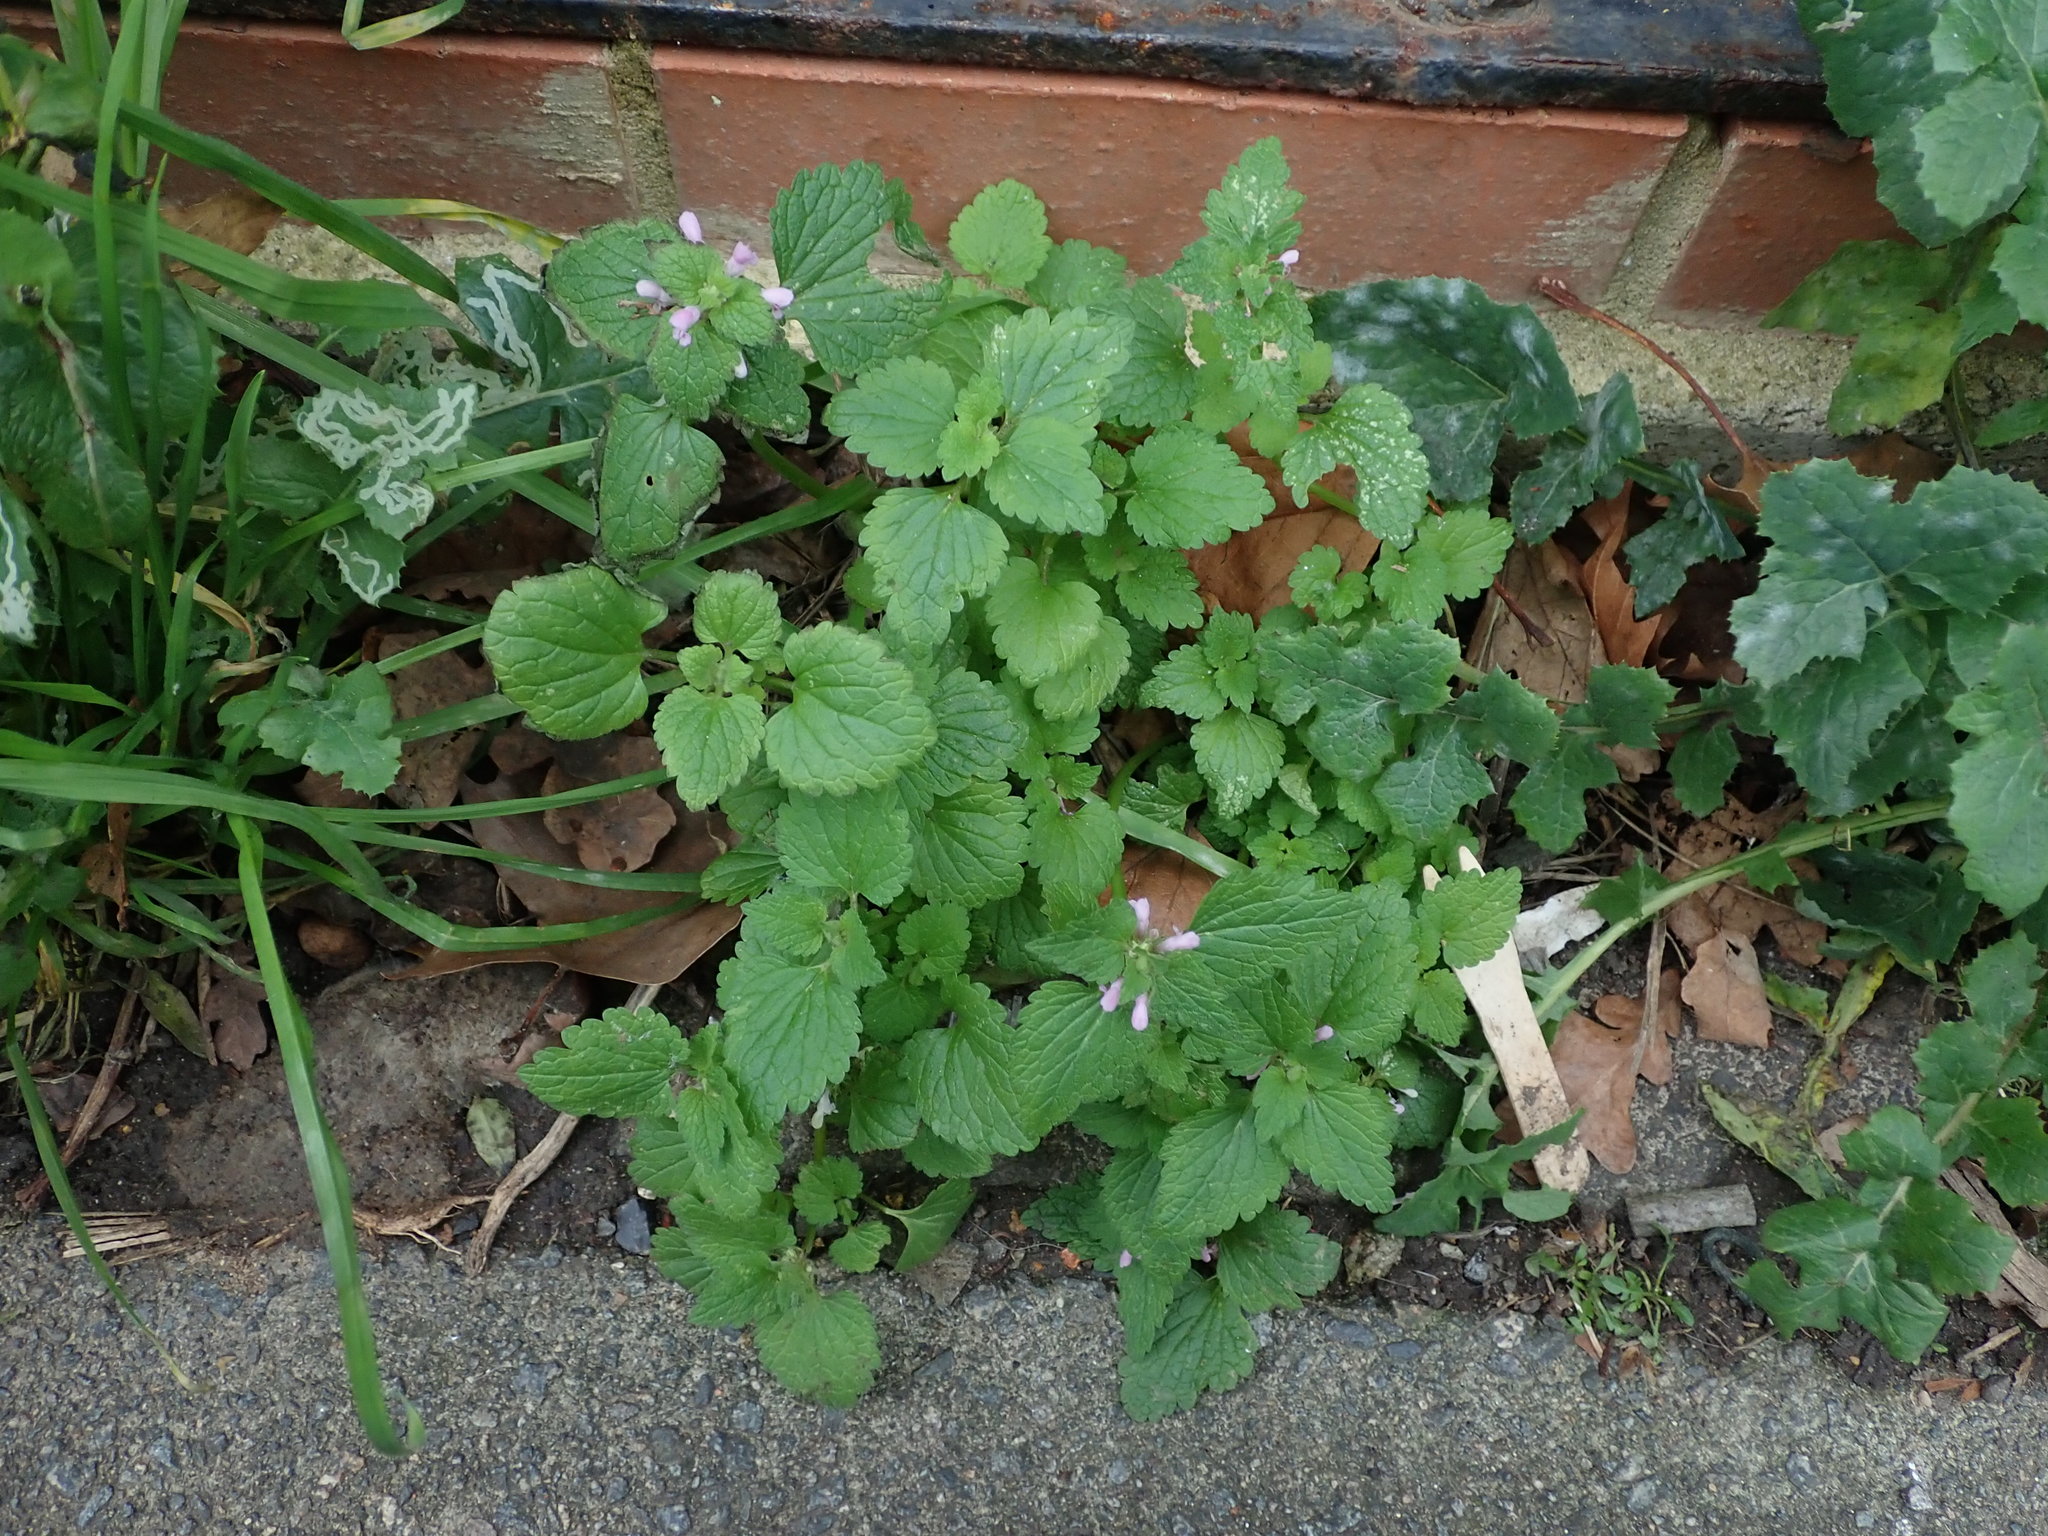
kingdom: Plantae
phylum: Tracheophyta
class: Magnoliopsida
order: Lamiales
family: Lamiaceae
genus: Lamium
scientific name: Lamium purpureum
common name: Red dead-nettle
